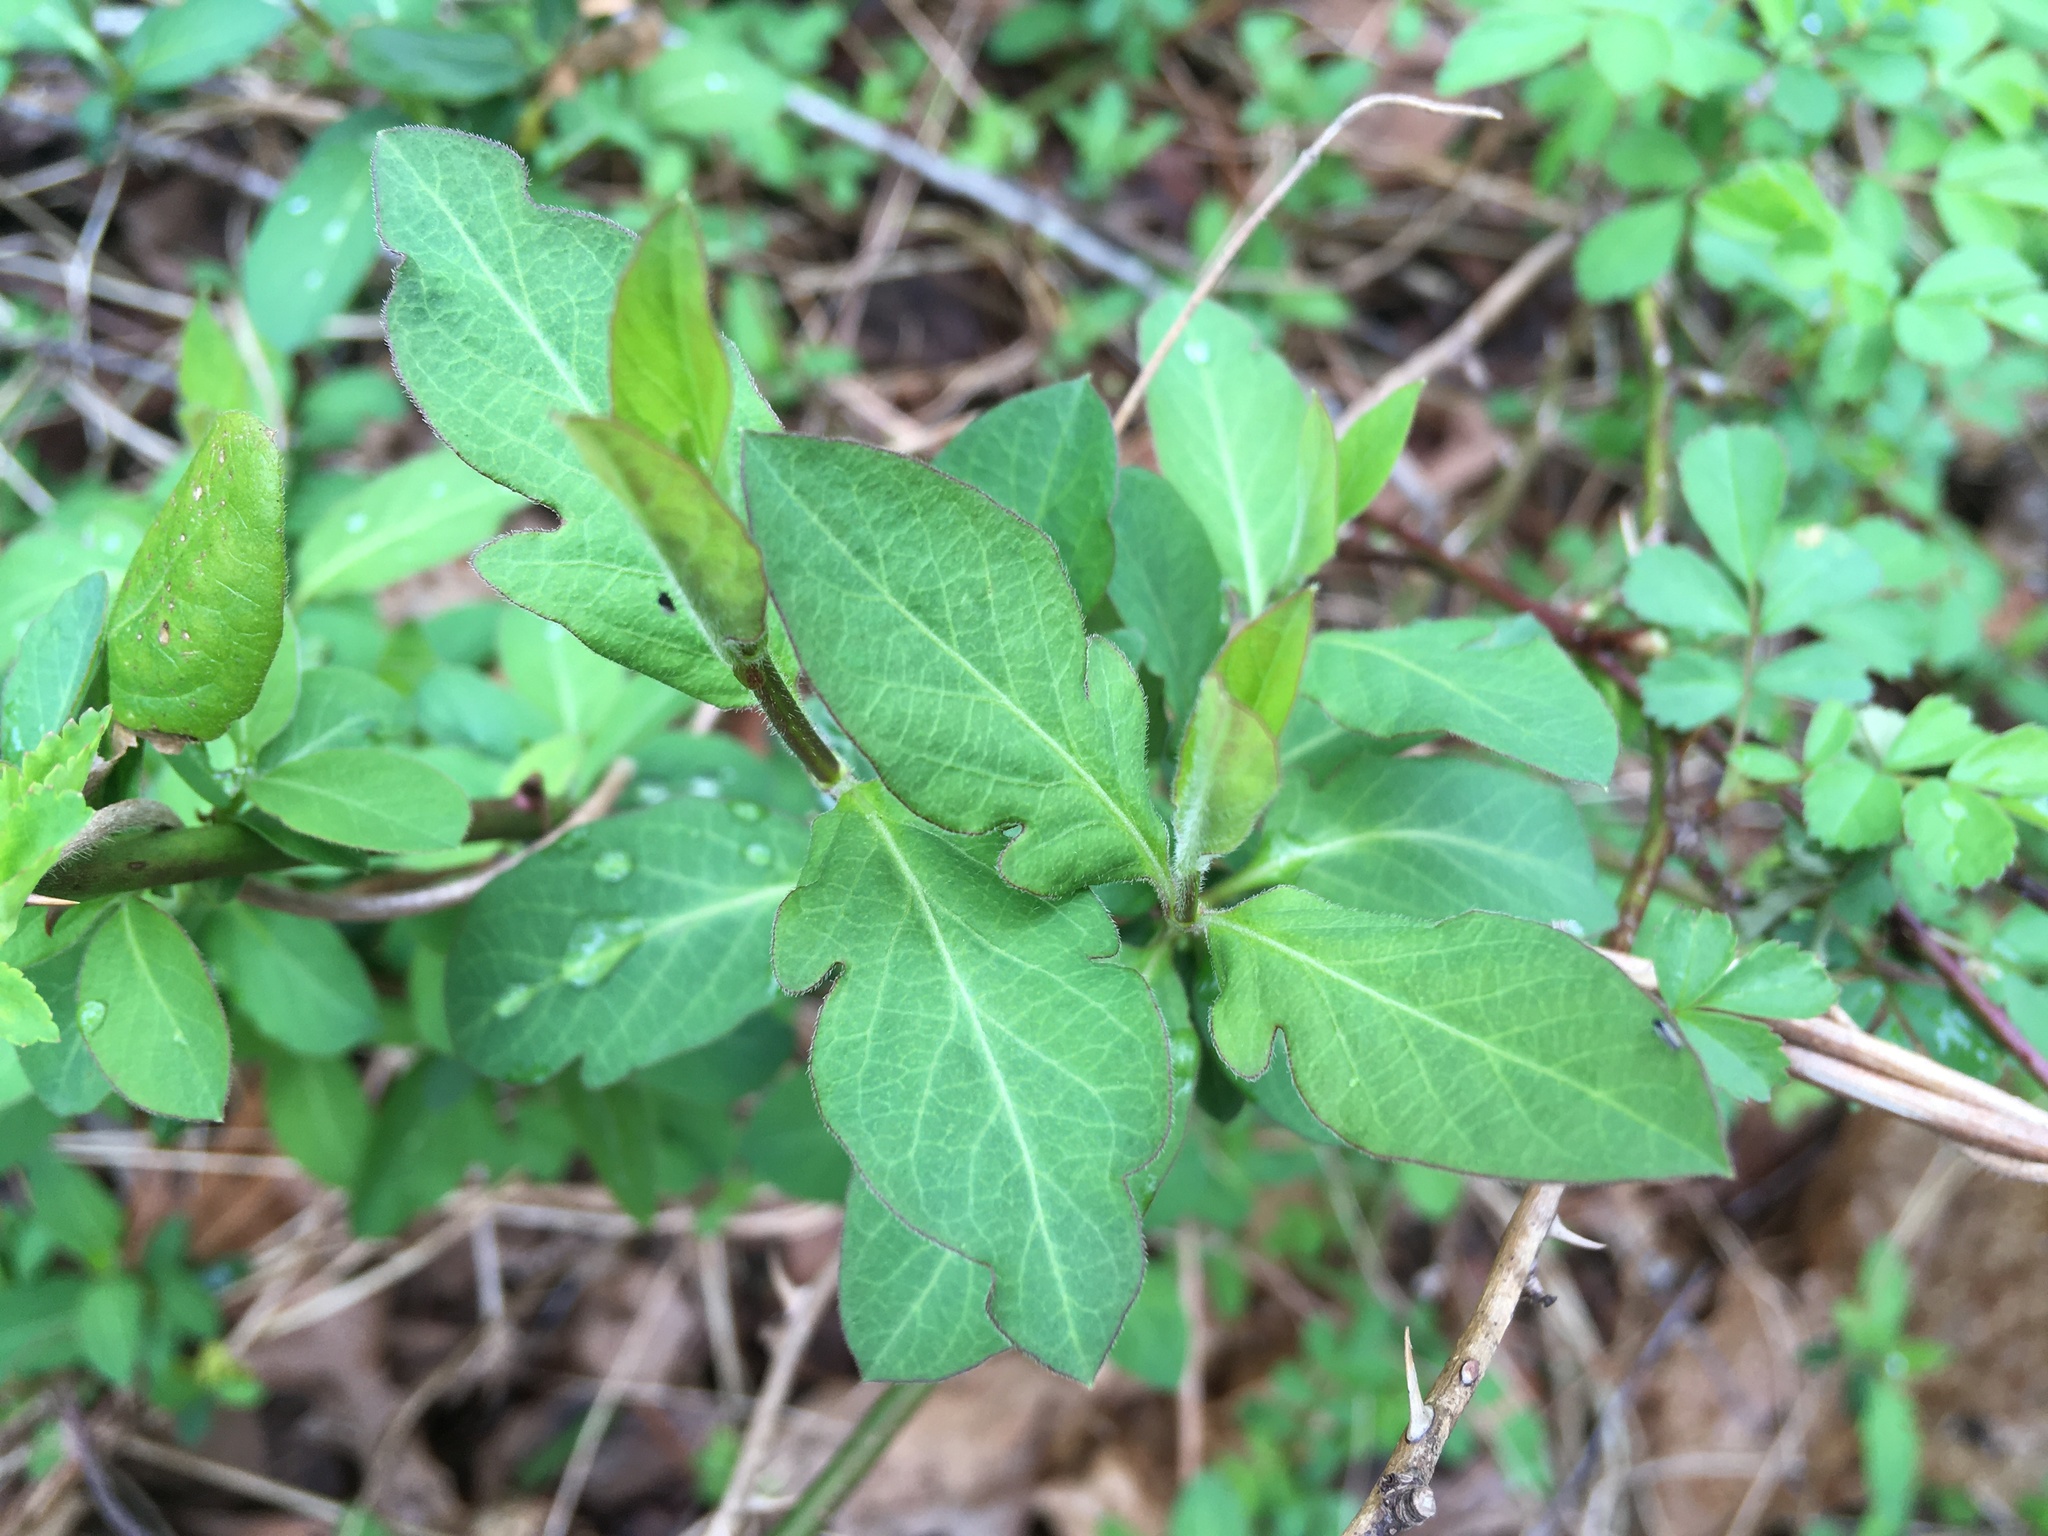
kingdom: Plantae
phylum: Tracheophyta
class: Magnoliopsida
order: Dipsacales
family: Caprifoliaceae
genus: Lonicera
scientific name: Lonicera japonica
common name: Japanese honeysuckle
